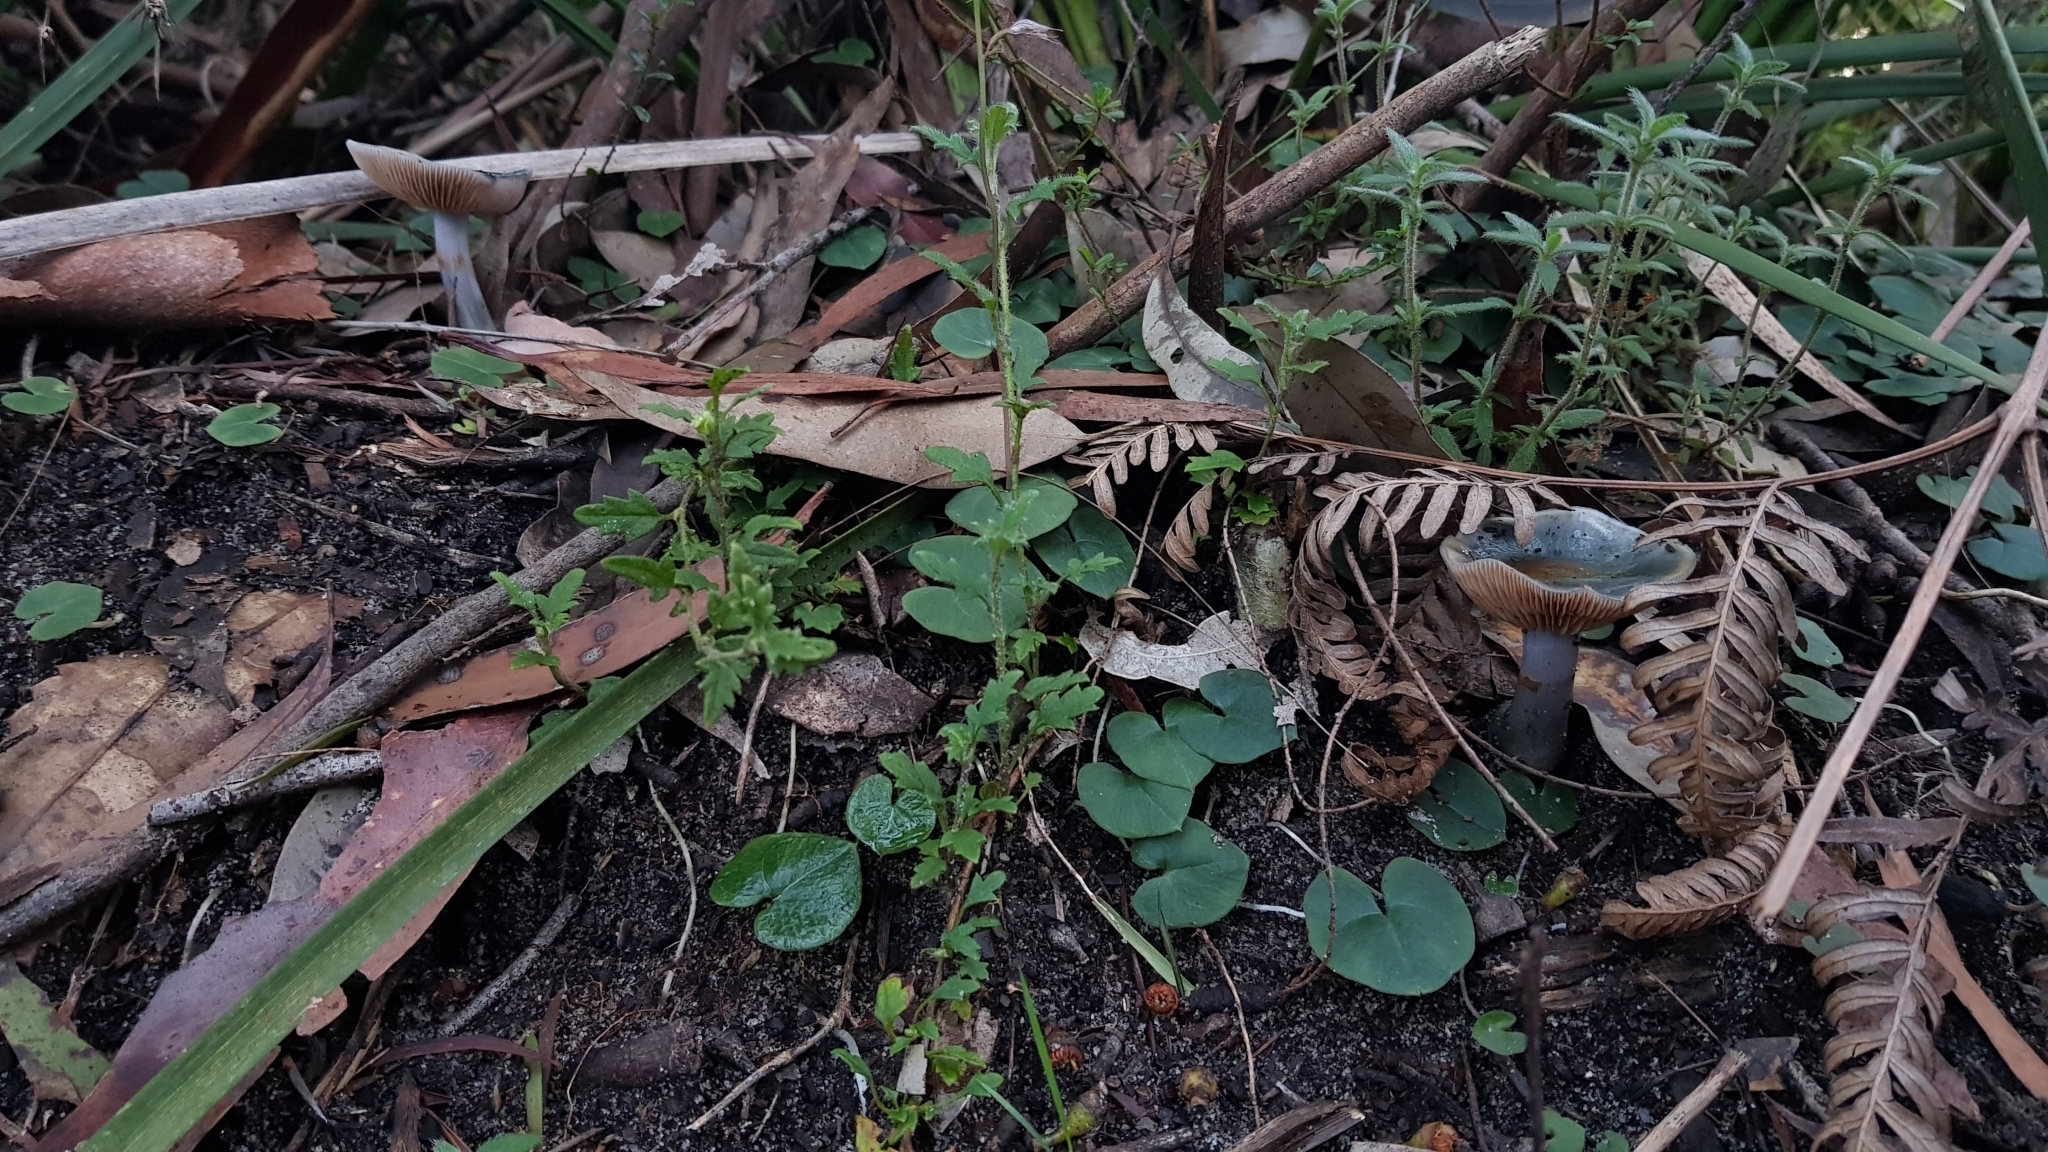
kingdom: Fungi
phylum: Basidiomycota
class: Agaricomycetes
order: Agaricales
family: Cortinariaceae
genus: Cortinarius
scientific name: Cortinarius rotundisporus
